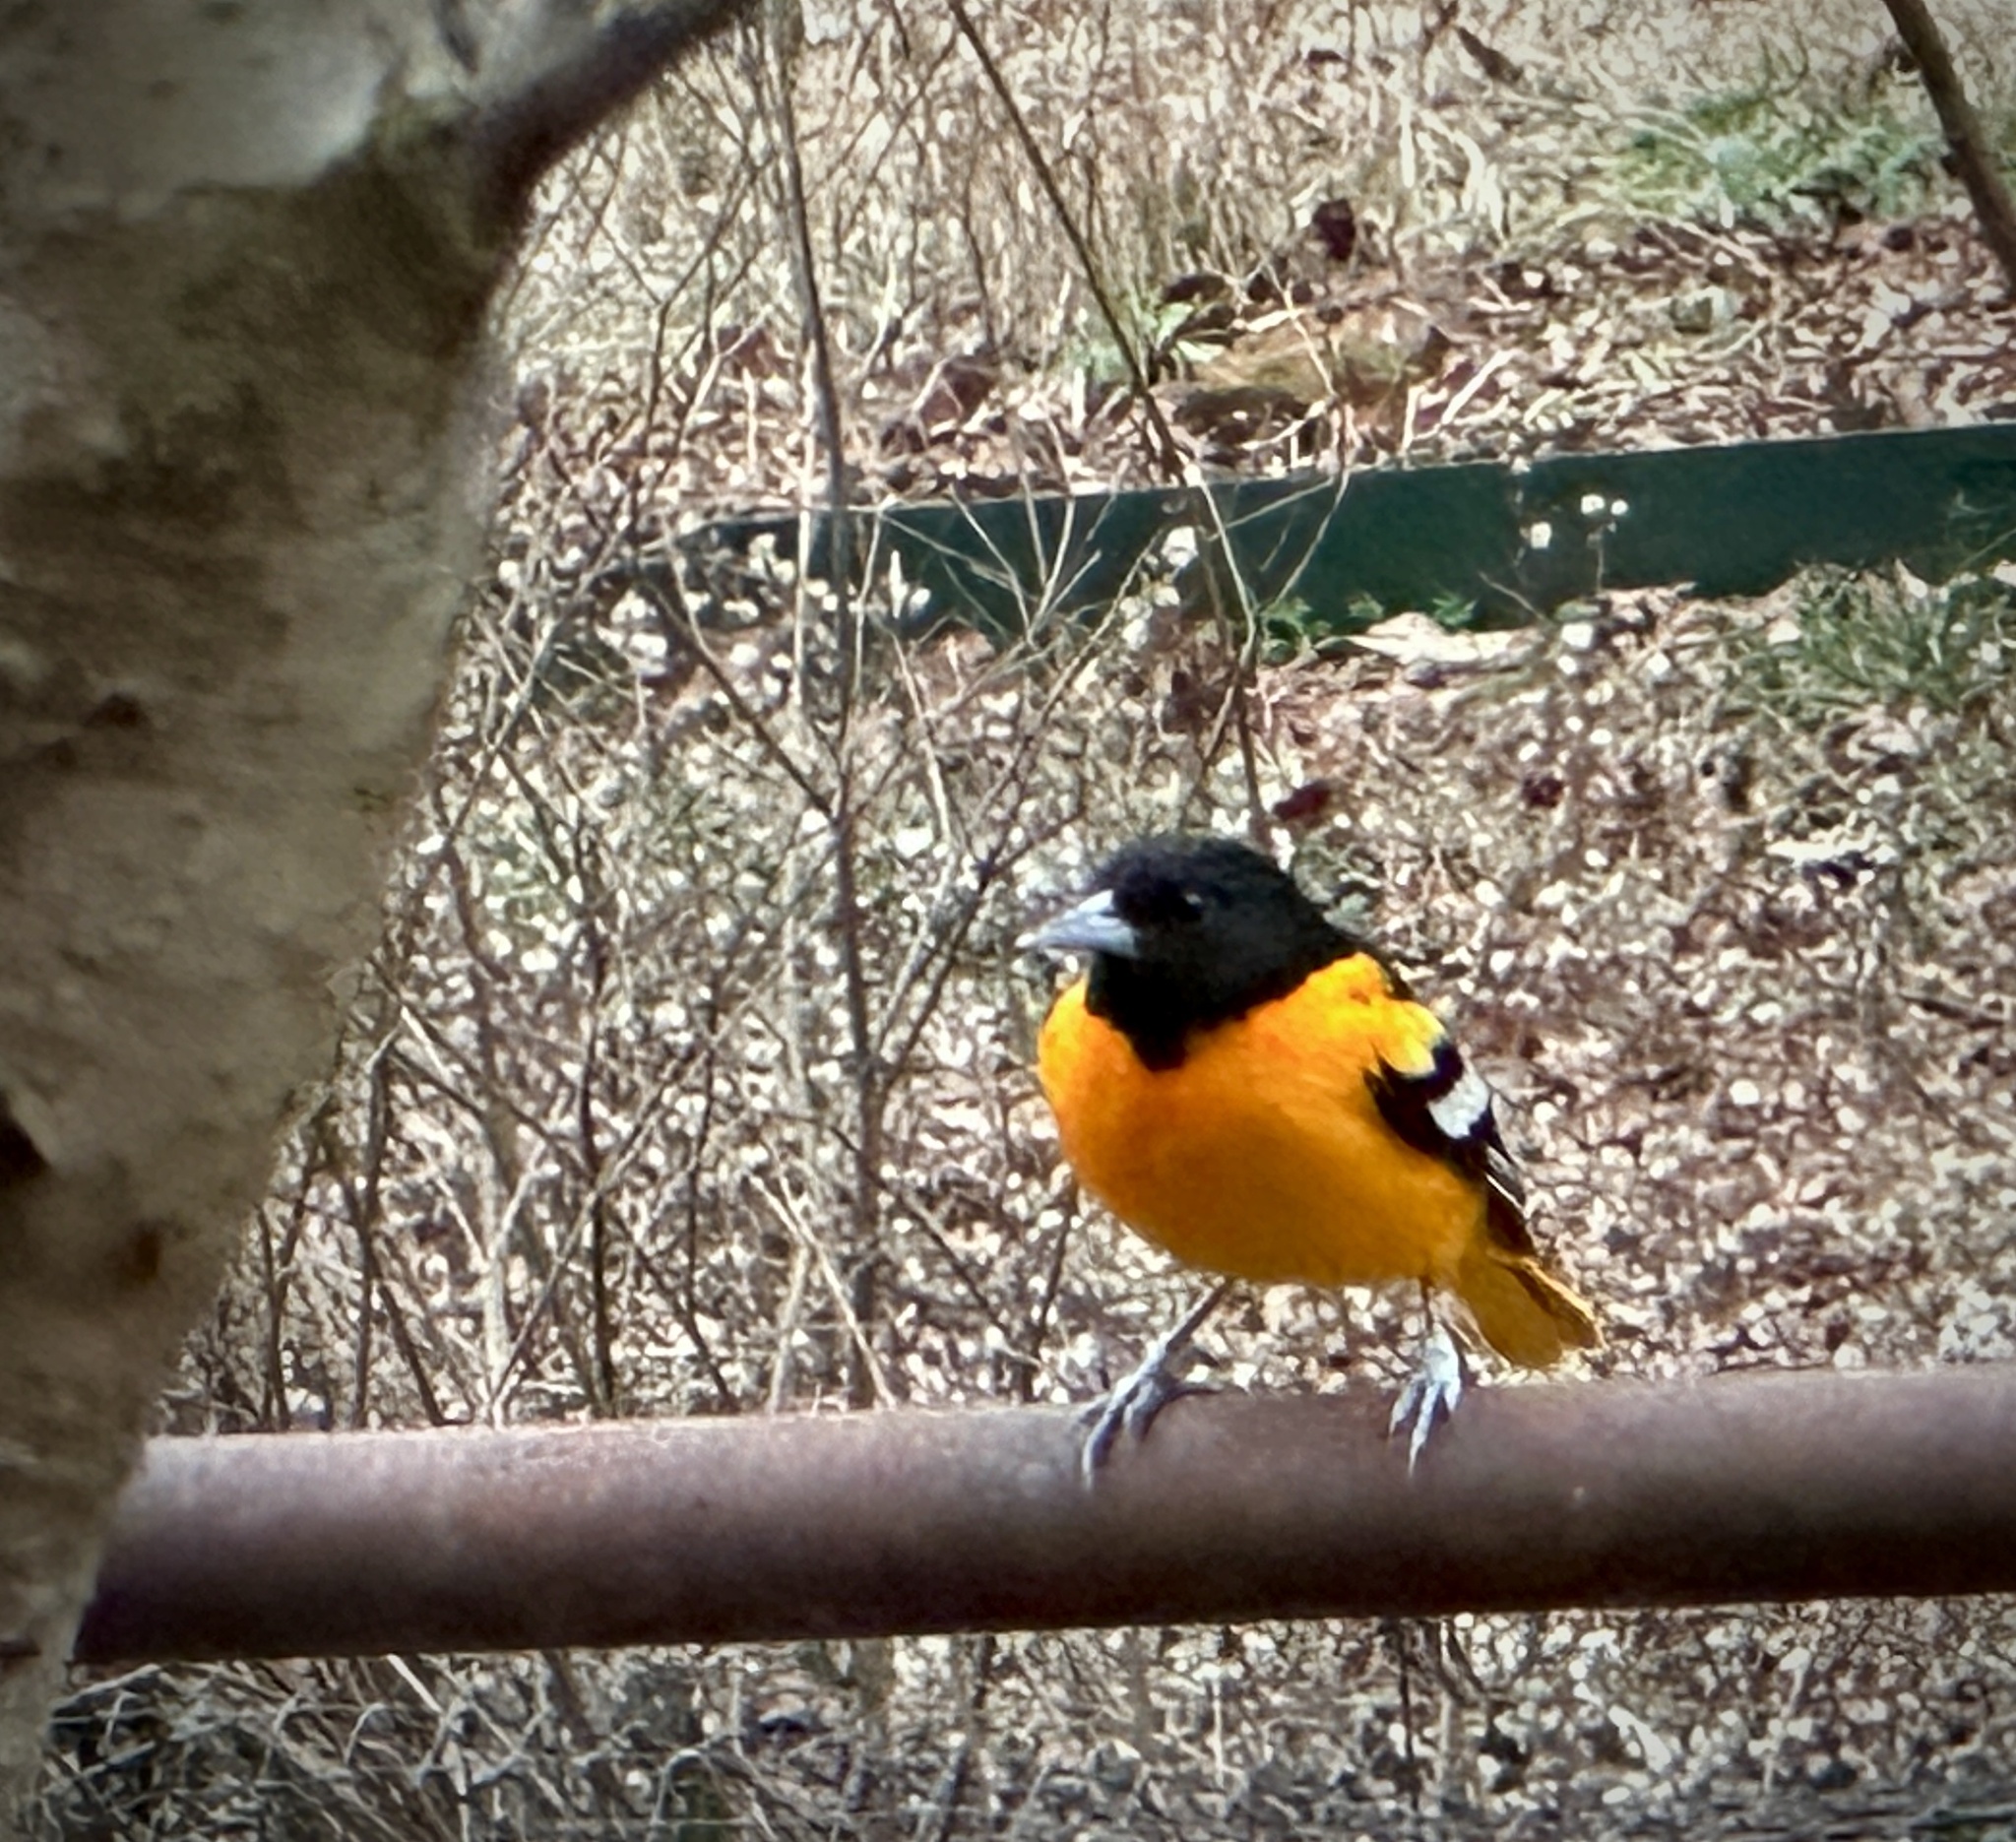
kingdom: Animalia
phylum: Chordata
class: Aves
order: Passeriformes
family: Icteridae
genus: Icterus
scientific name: Icterus galbula
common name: Baltimore oriole
